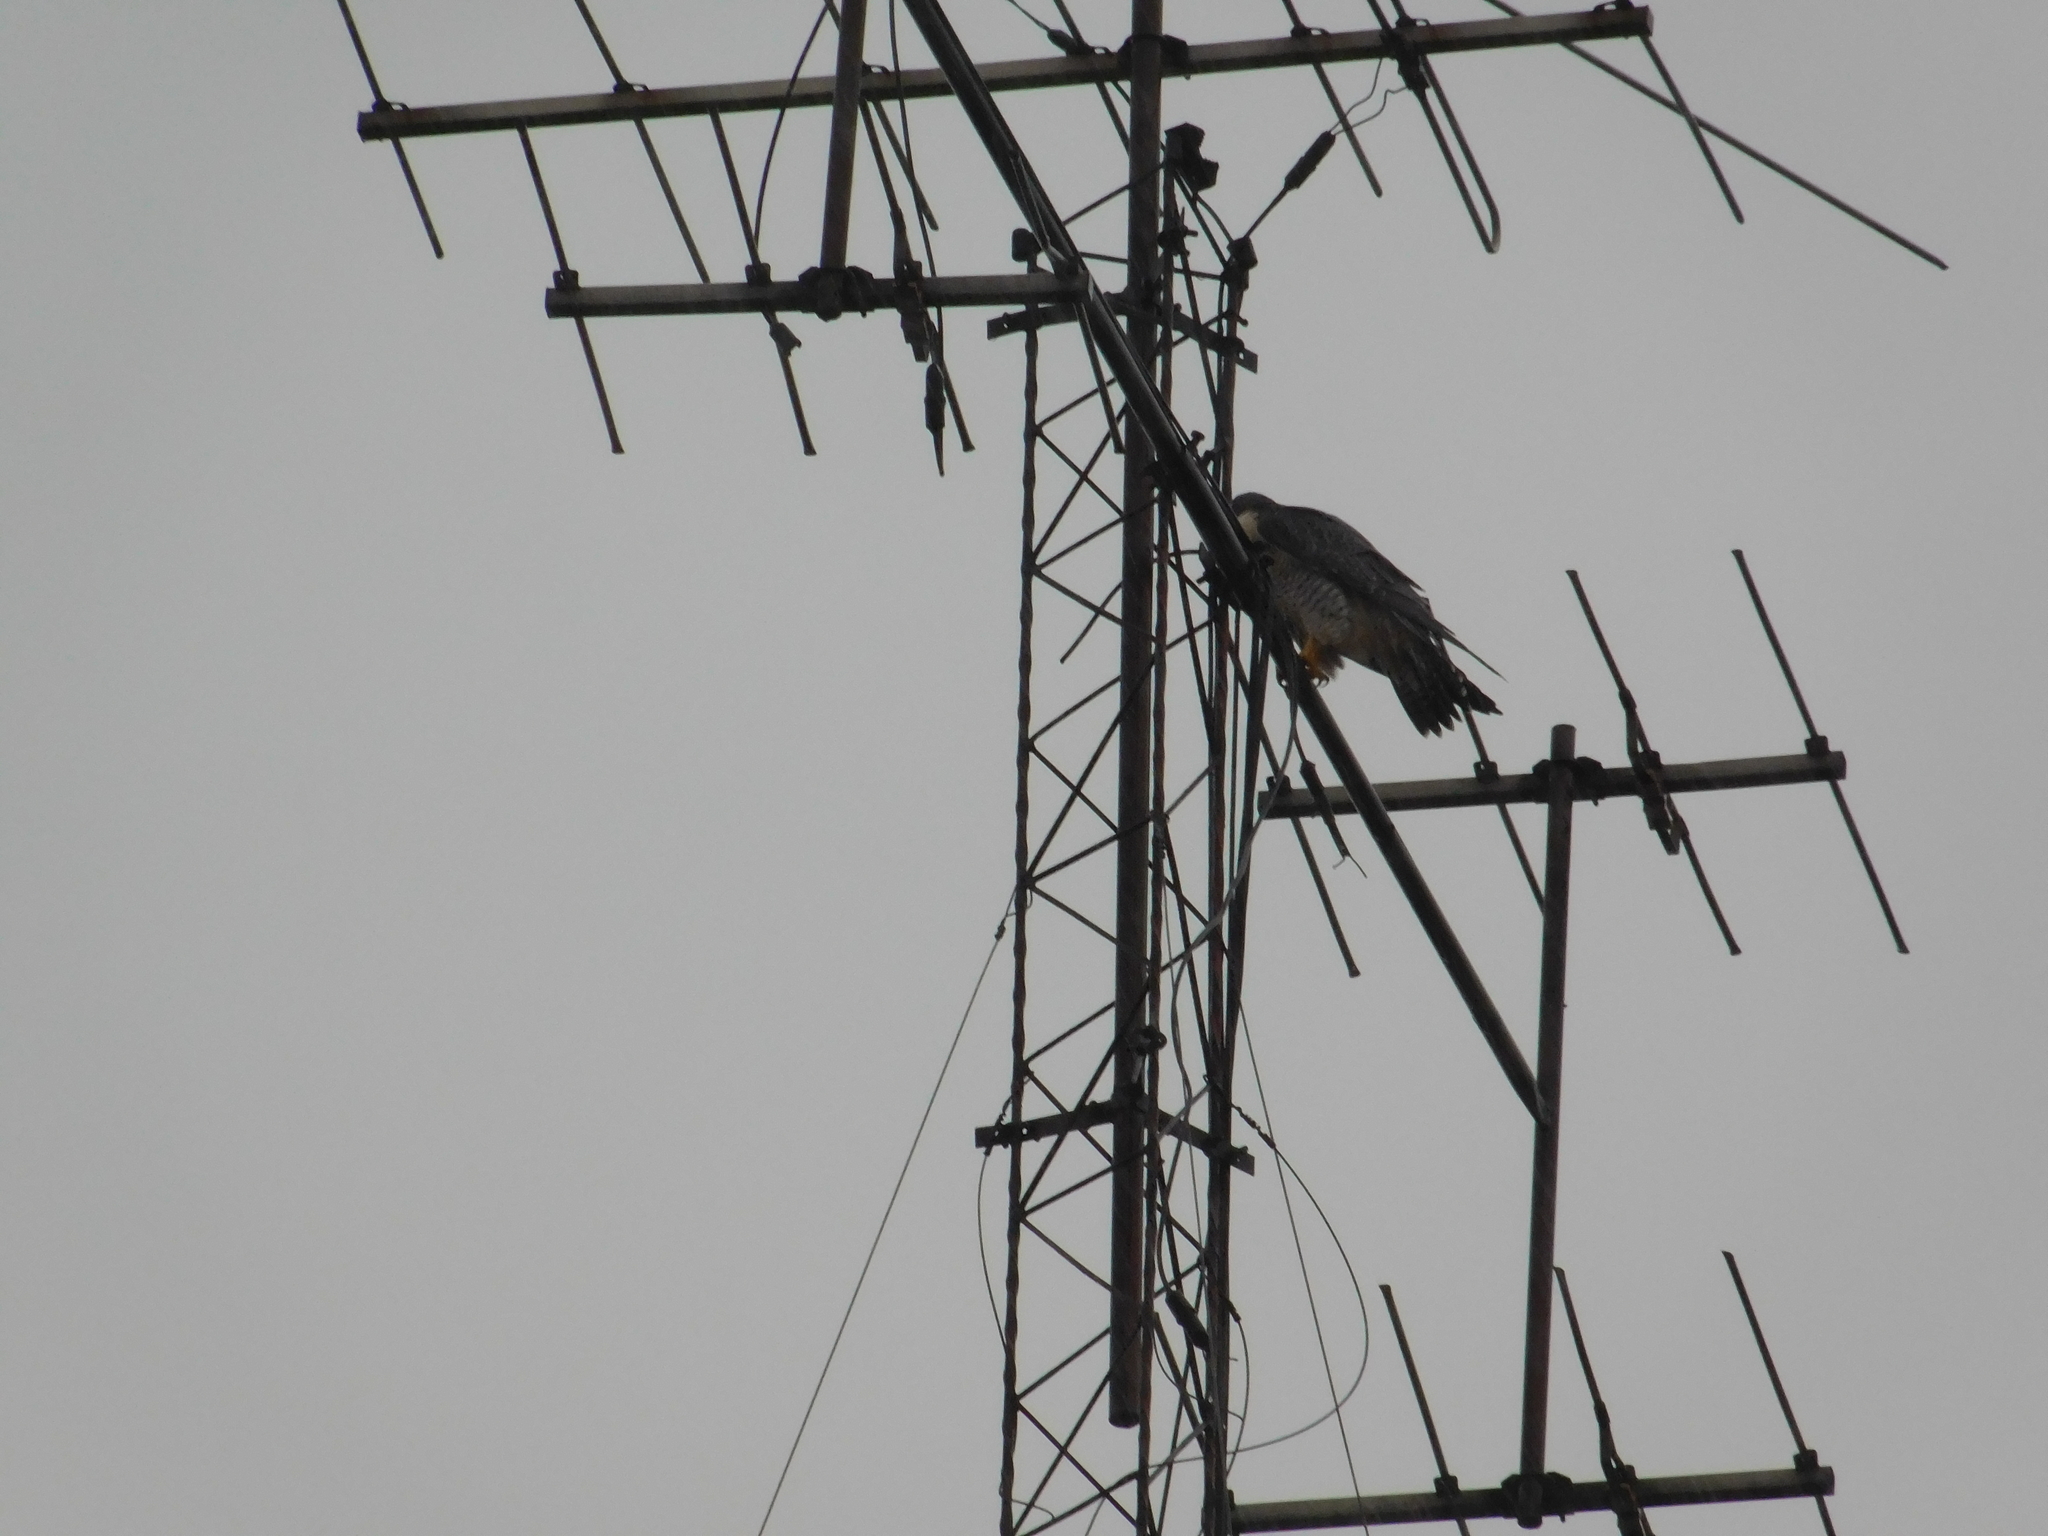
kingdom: Animalia
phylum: Chordata
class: Aves
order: Falconiformes
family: Falconidae
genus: Falco
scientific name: Falco peregrinus
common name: Peregrine falcon
